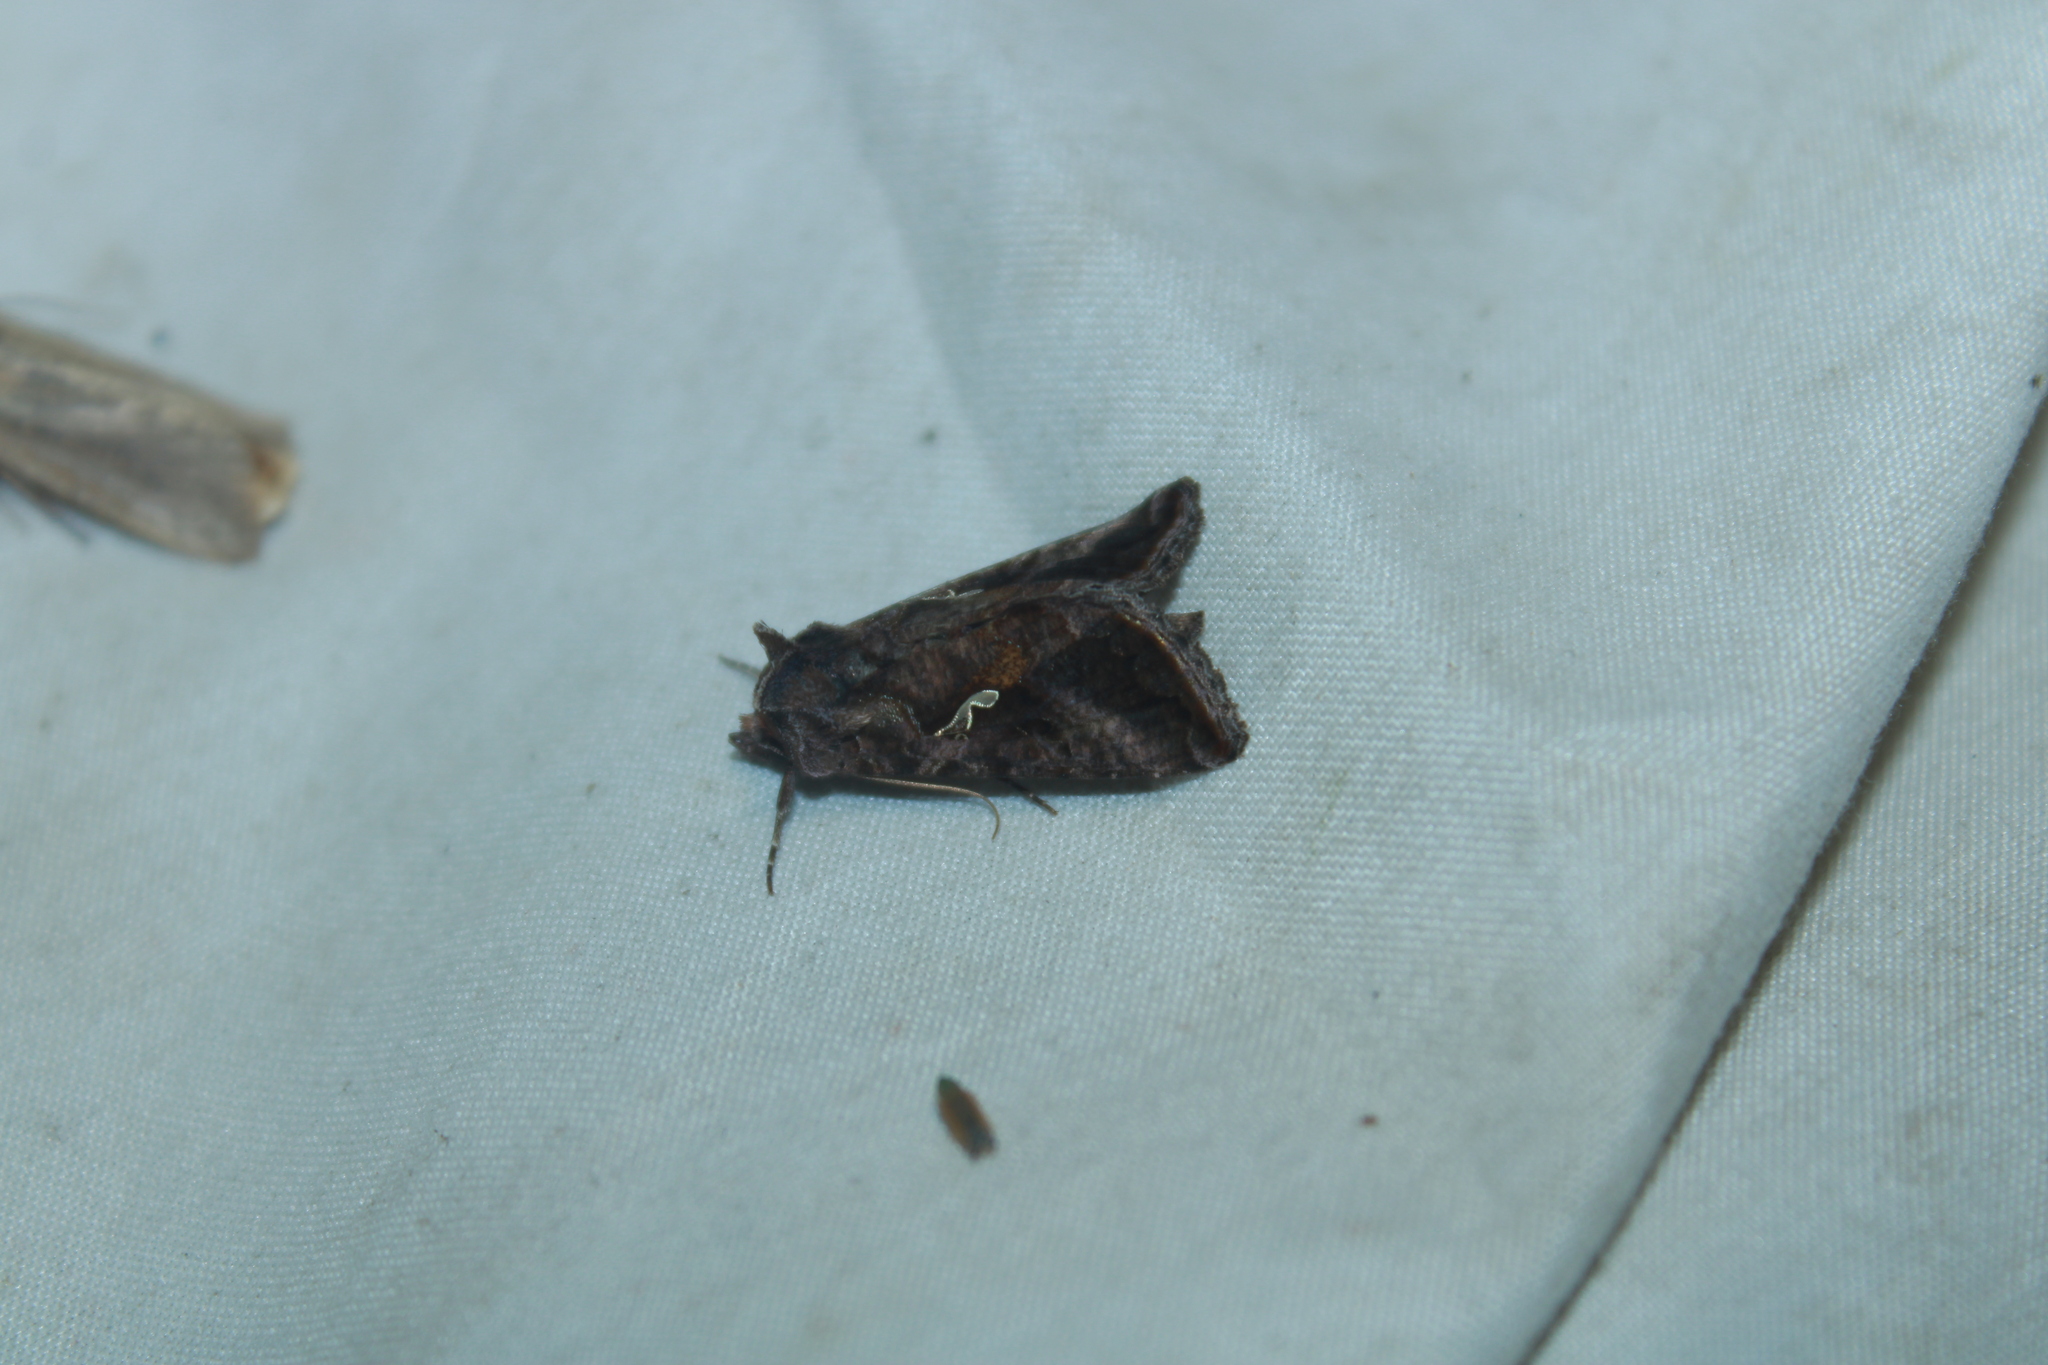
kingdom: Animalia
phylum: Arthropoda
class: Insecta
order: Lepidoptera
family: Noctuidae
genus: Autographa
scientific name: Autographa precationis
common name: Common looper moth
